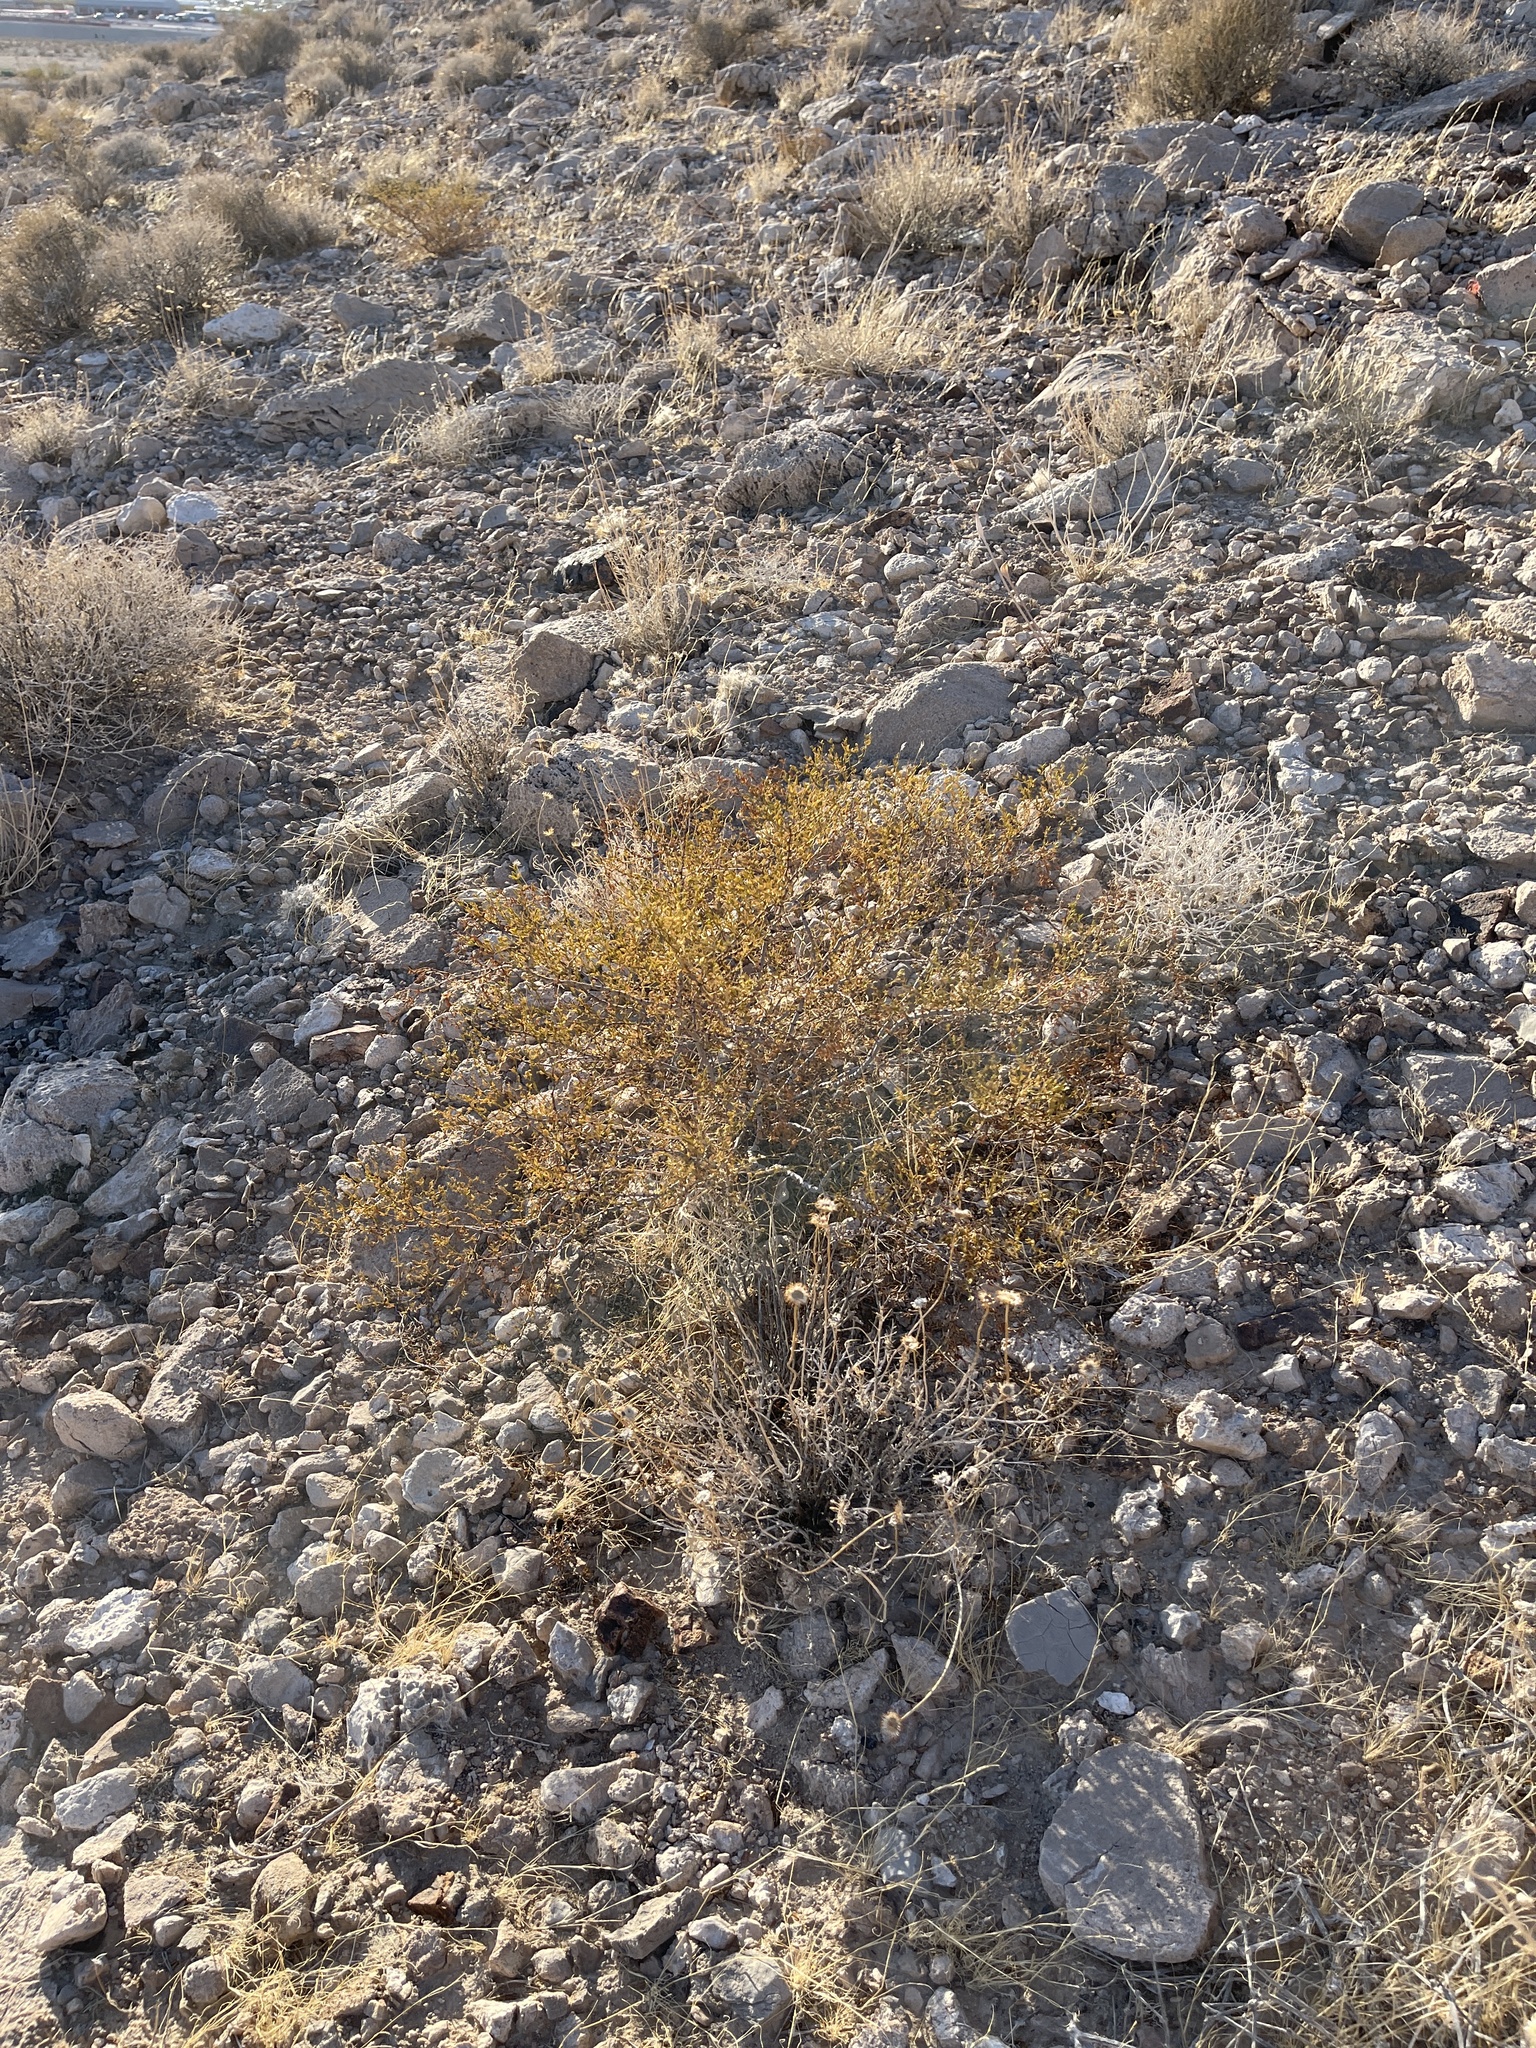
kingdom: Plantae
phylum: Tracheophyta
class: Magnoliopsida
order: Zygophyllales
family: Zygophyllaceae
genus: Larrea
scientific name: Larrea tridentata
